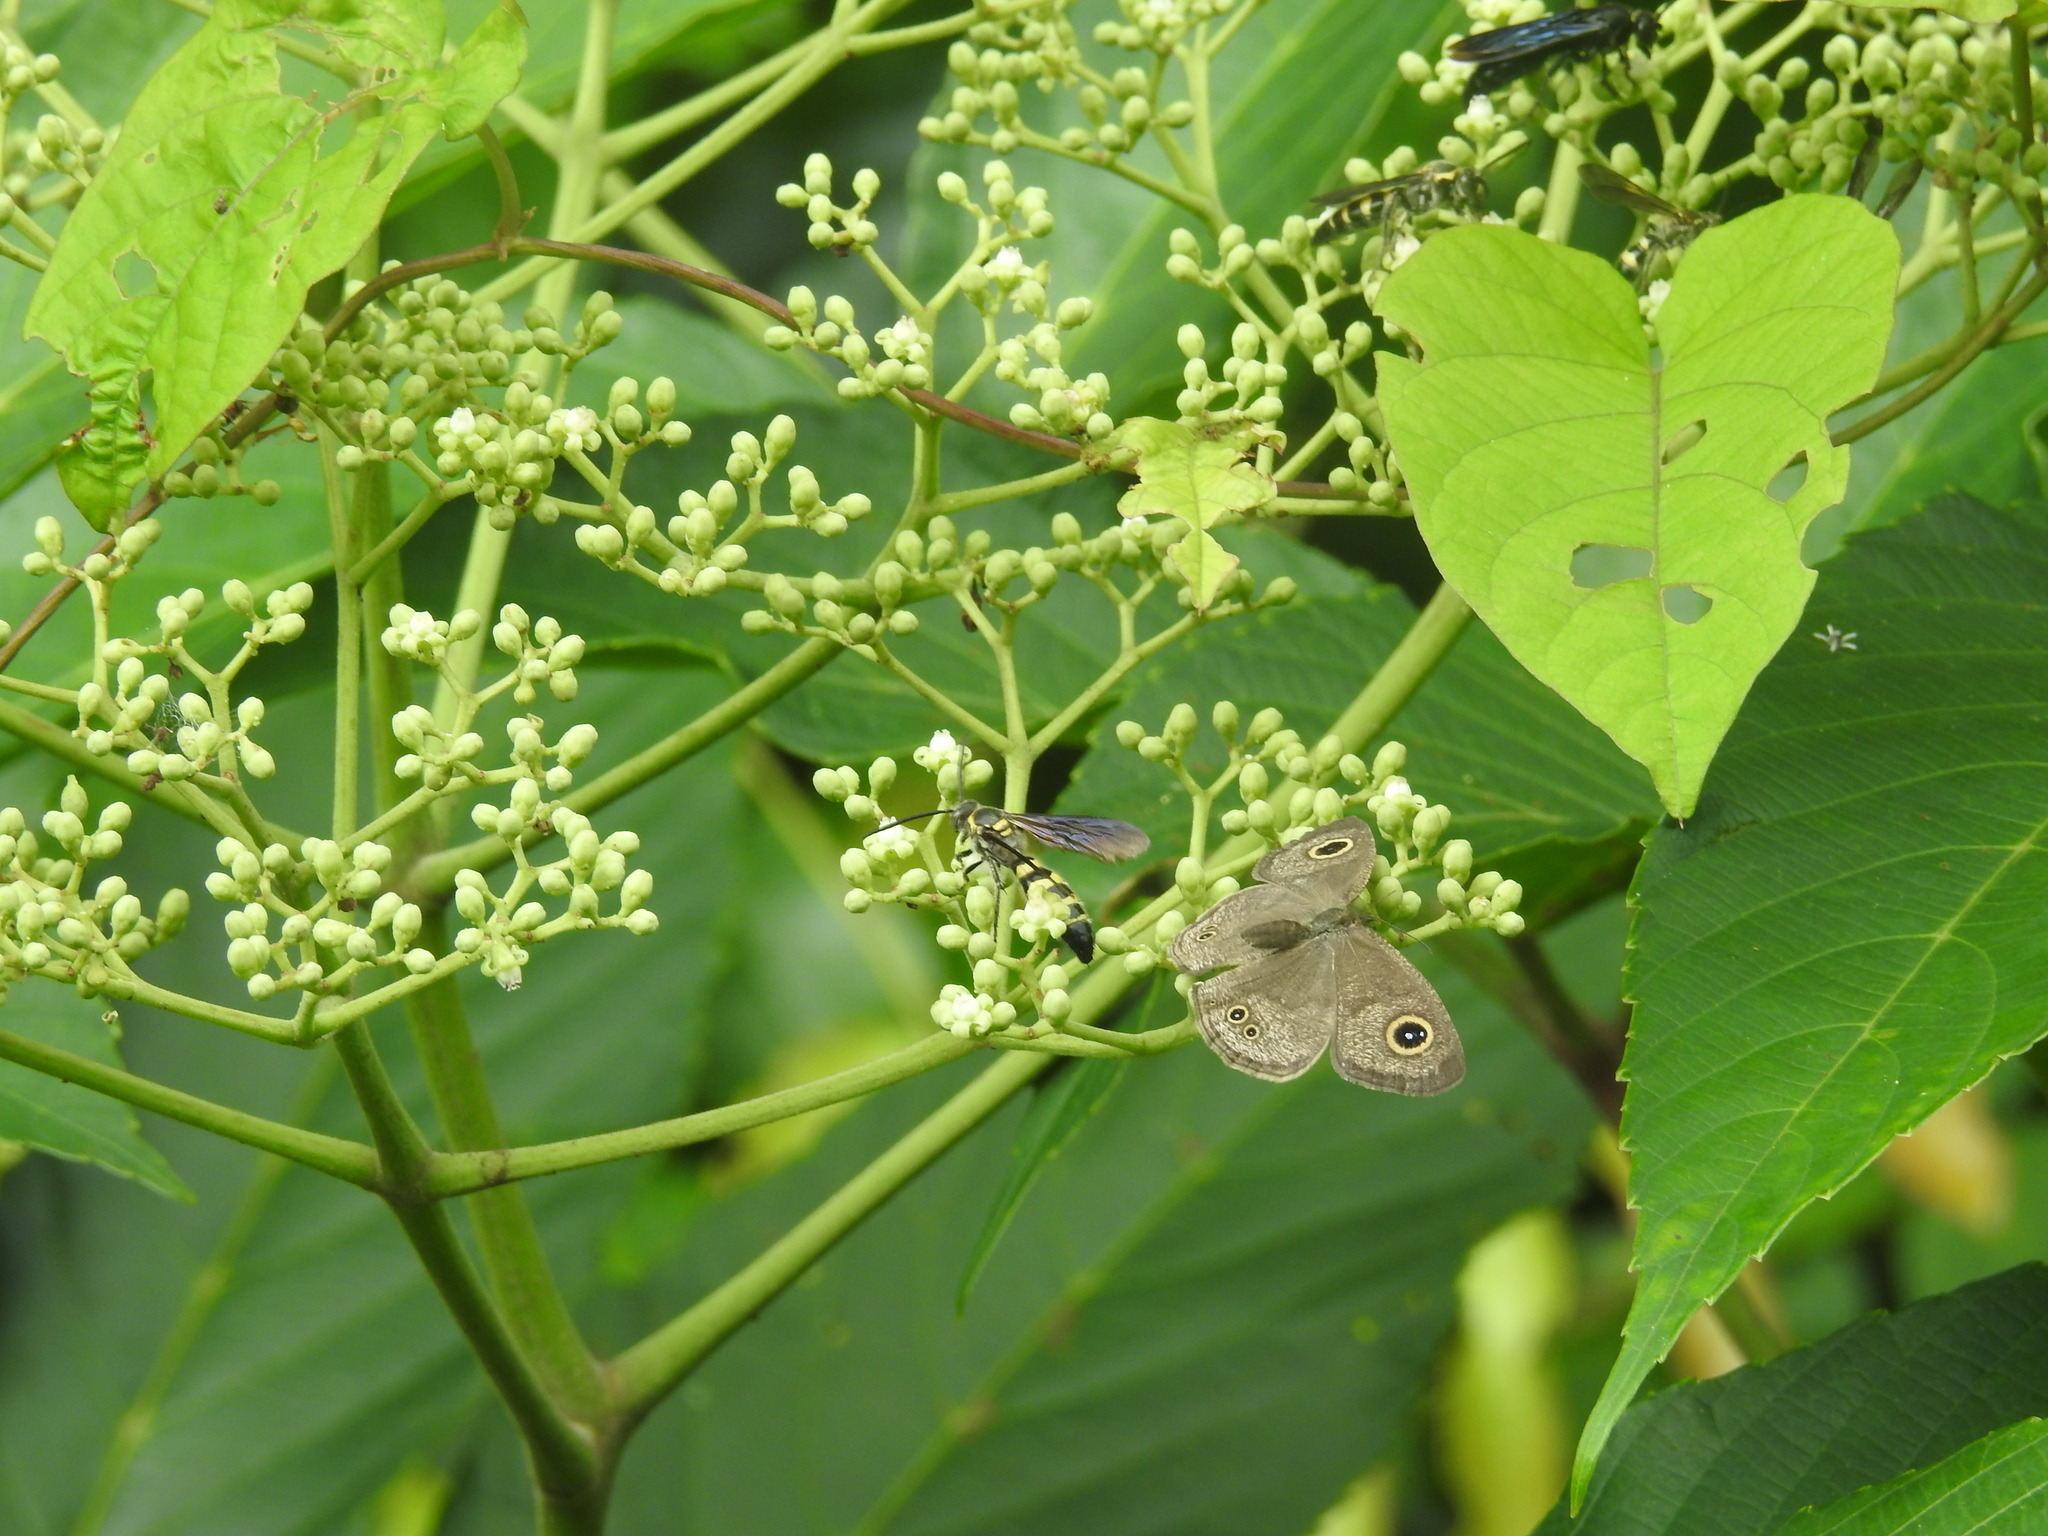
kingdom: Animalia
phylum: Arthropoda
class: Insecta
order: Lepidoptera
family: Nymphalidae
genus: Ypthima
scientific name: Ypthima huebneri
